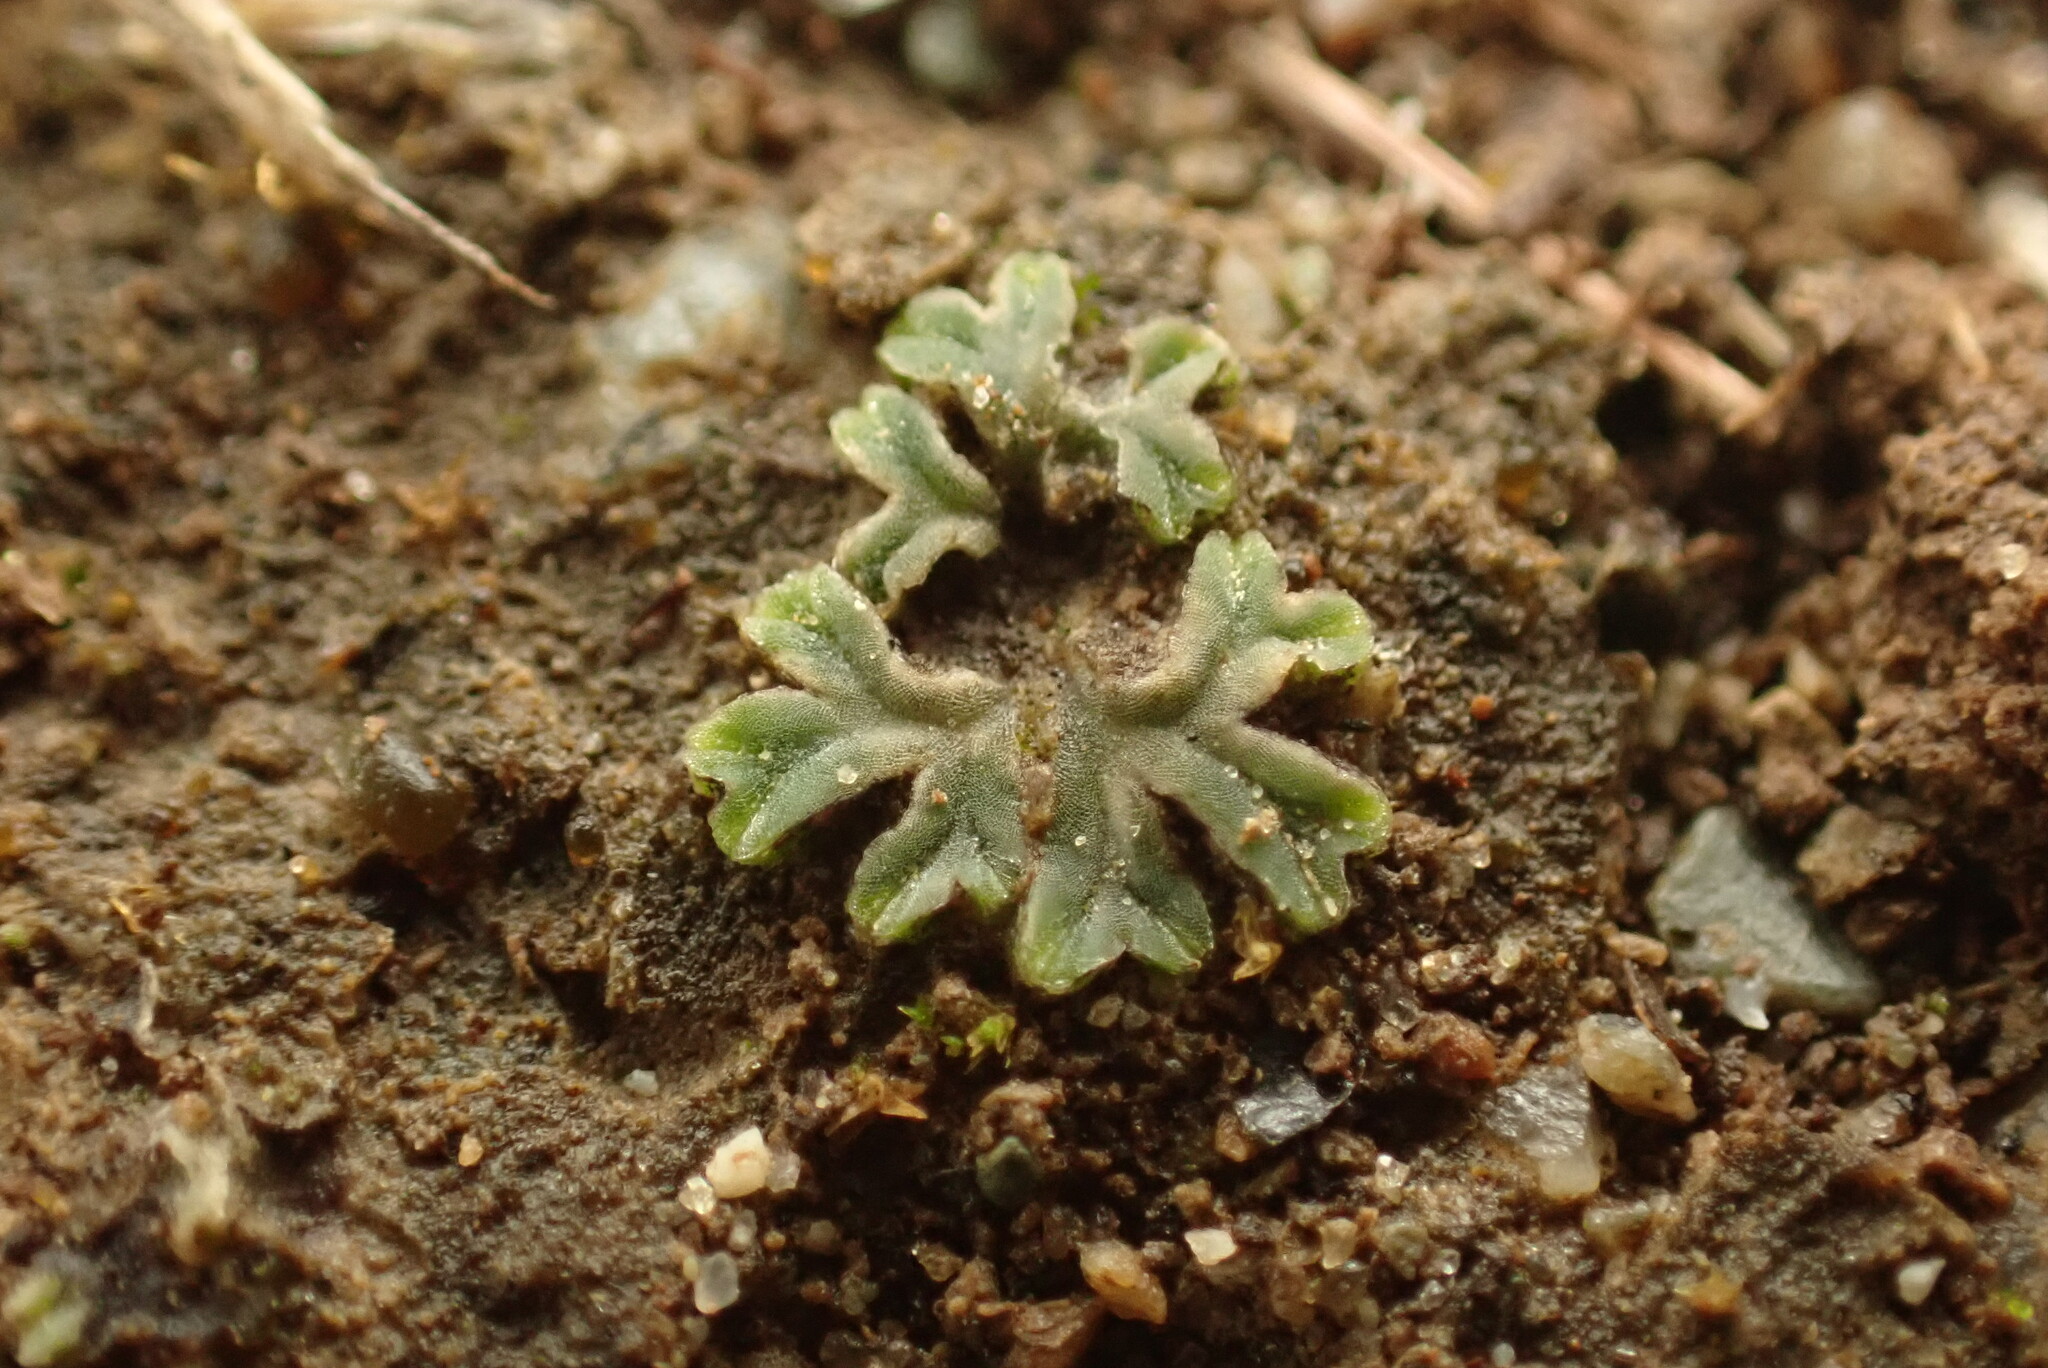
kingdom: Plantae
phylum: Marchantiophyta
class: Marchantiopsida
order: Marchantiales
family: Ricciaceae
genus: Riccia
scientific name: Riccia sorocarpa
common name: Common crystalwort
